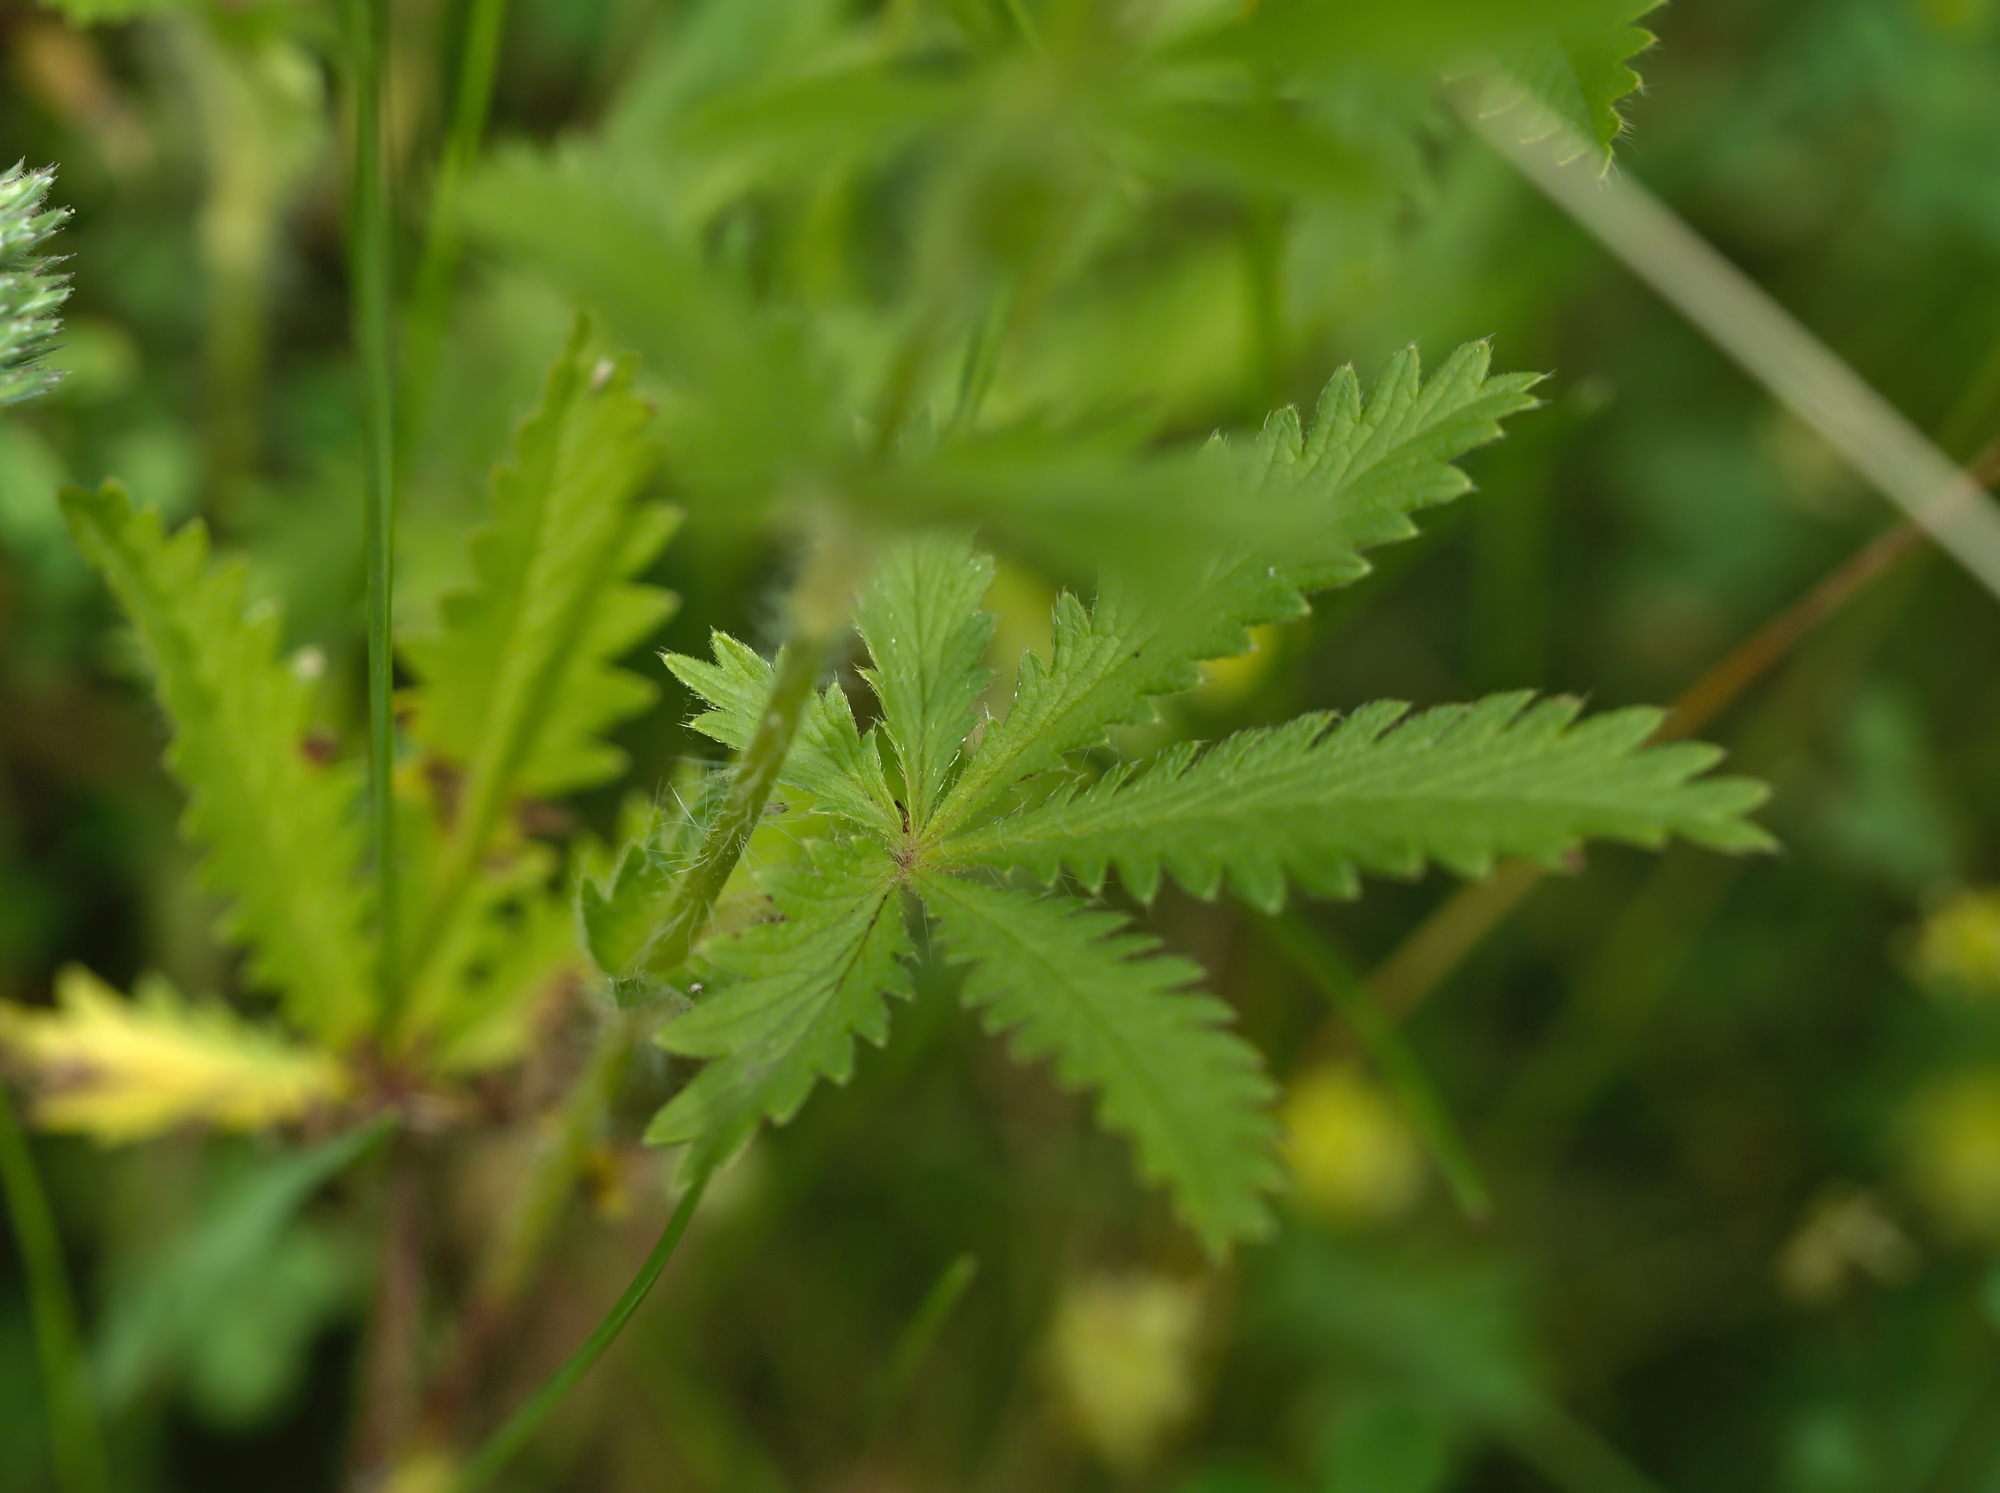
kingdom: Plantae
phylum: Tracheophyta
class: Magnoliopsida
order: Rosales
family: Rosaceae
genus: Potentilla
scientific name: Potentilla recta
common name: Sulphur cinquefoil
